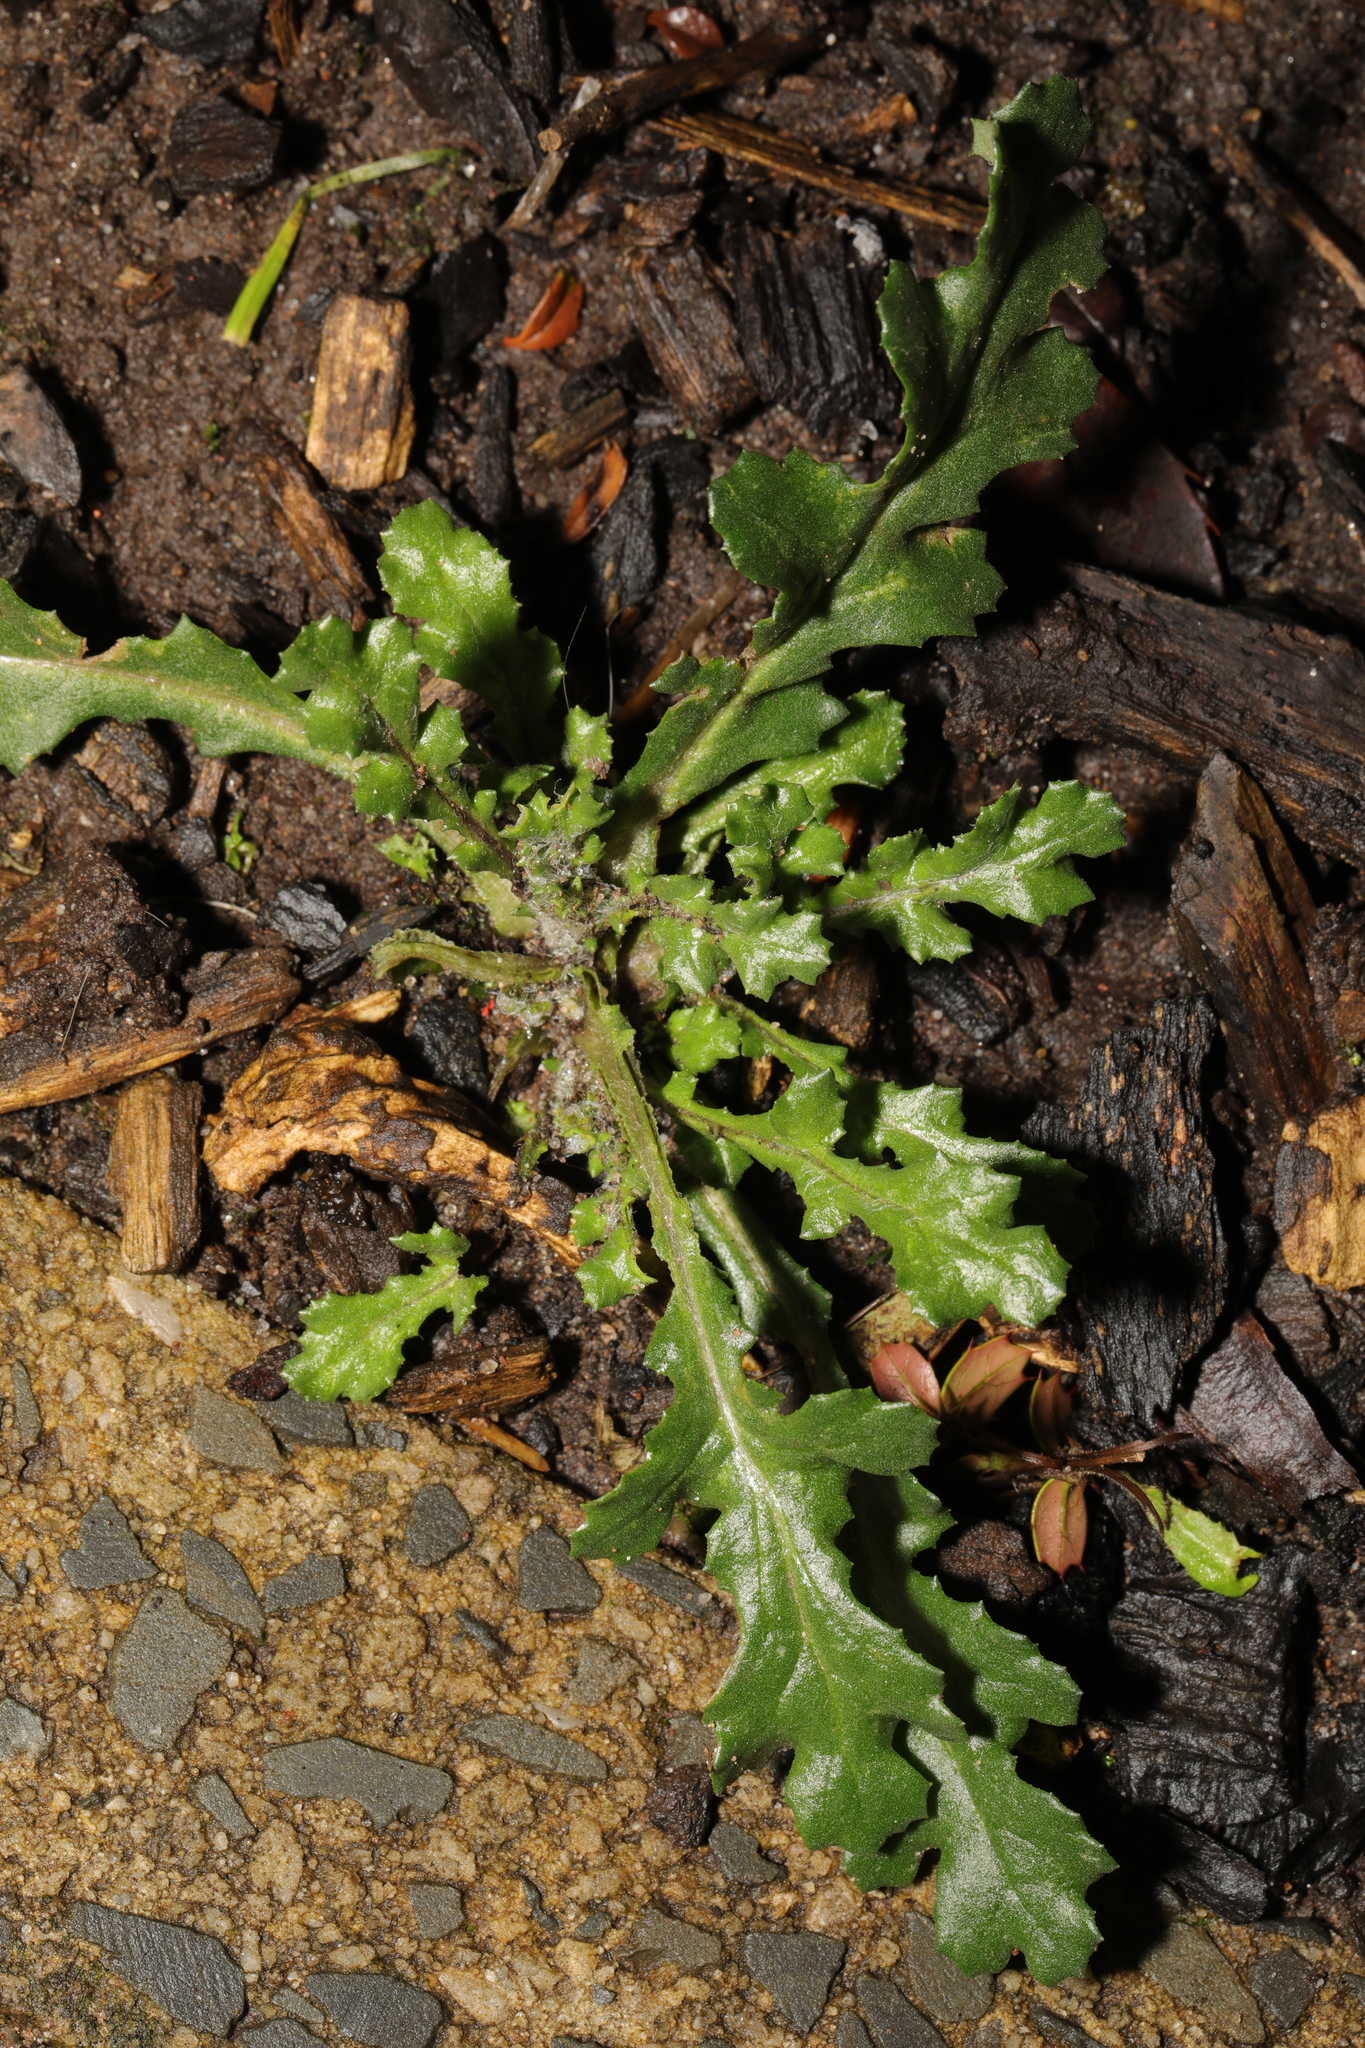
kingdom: Plantae
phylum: Tracheophyta
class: Magnoliopsida
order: Asterales
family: Asteraceae
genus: Senecio
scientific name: Senecio vulgaris
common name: Old-man-in-the-spring
